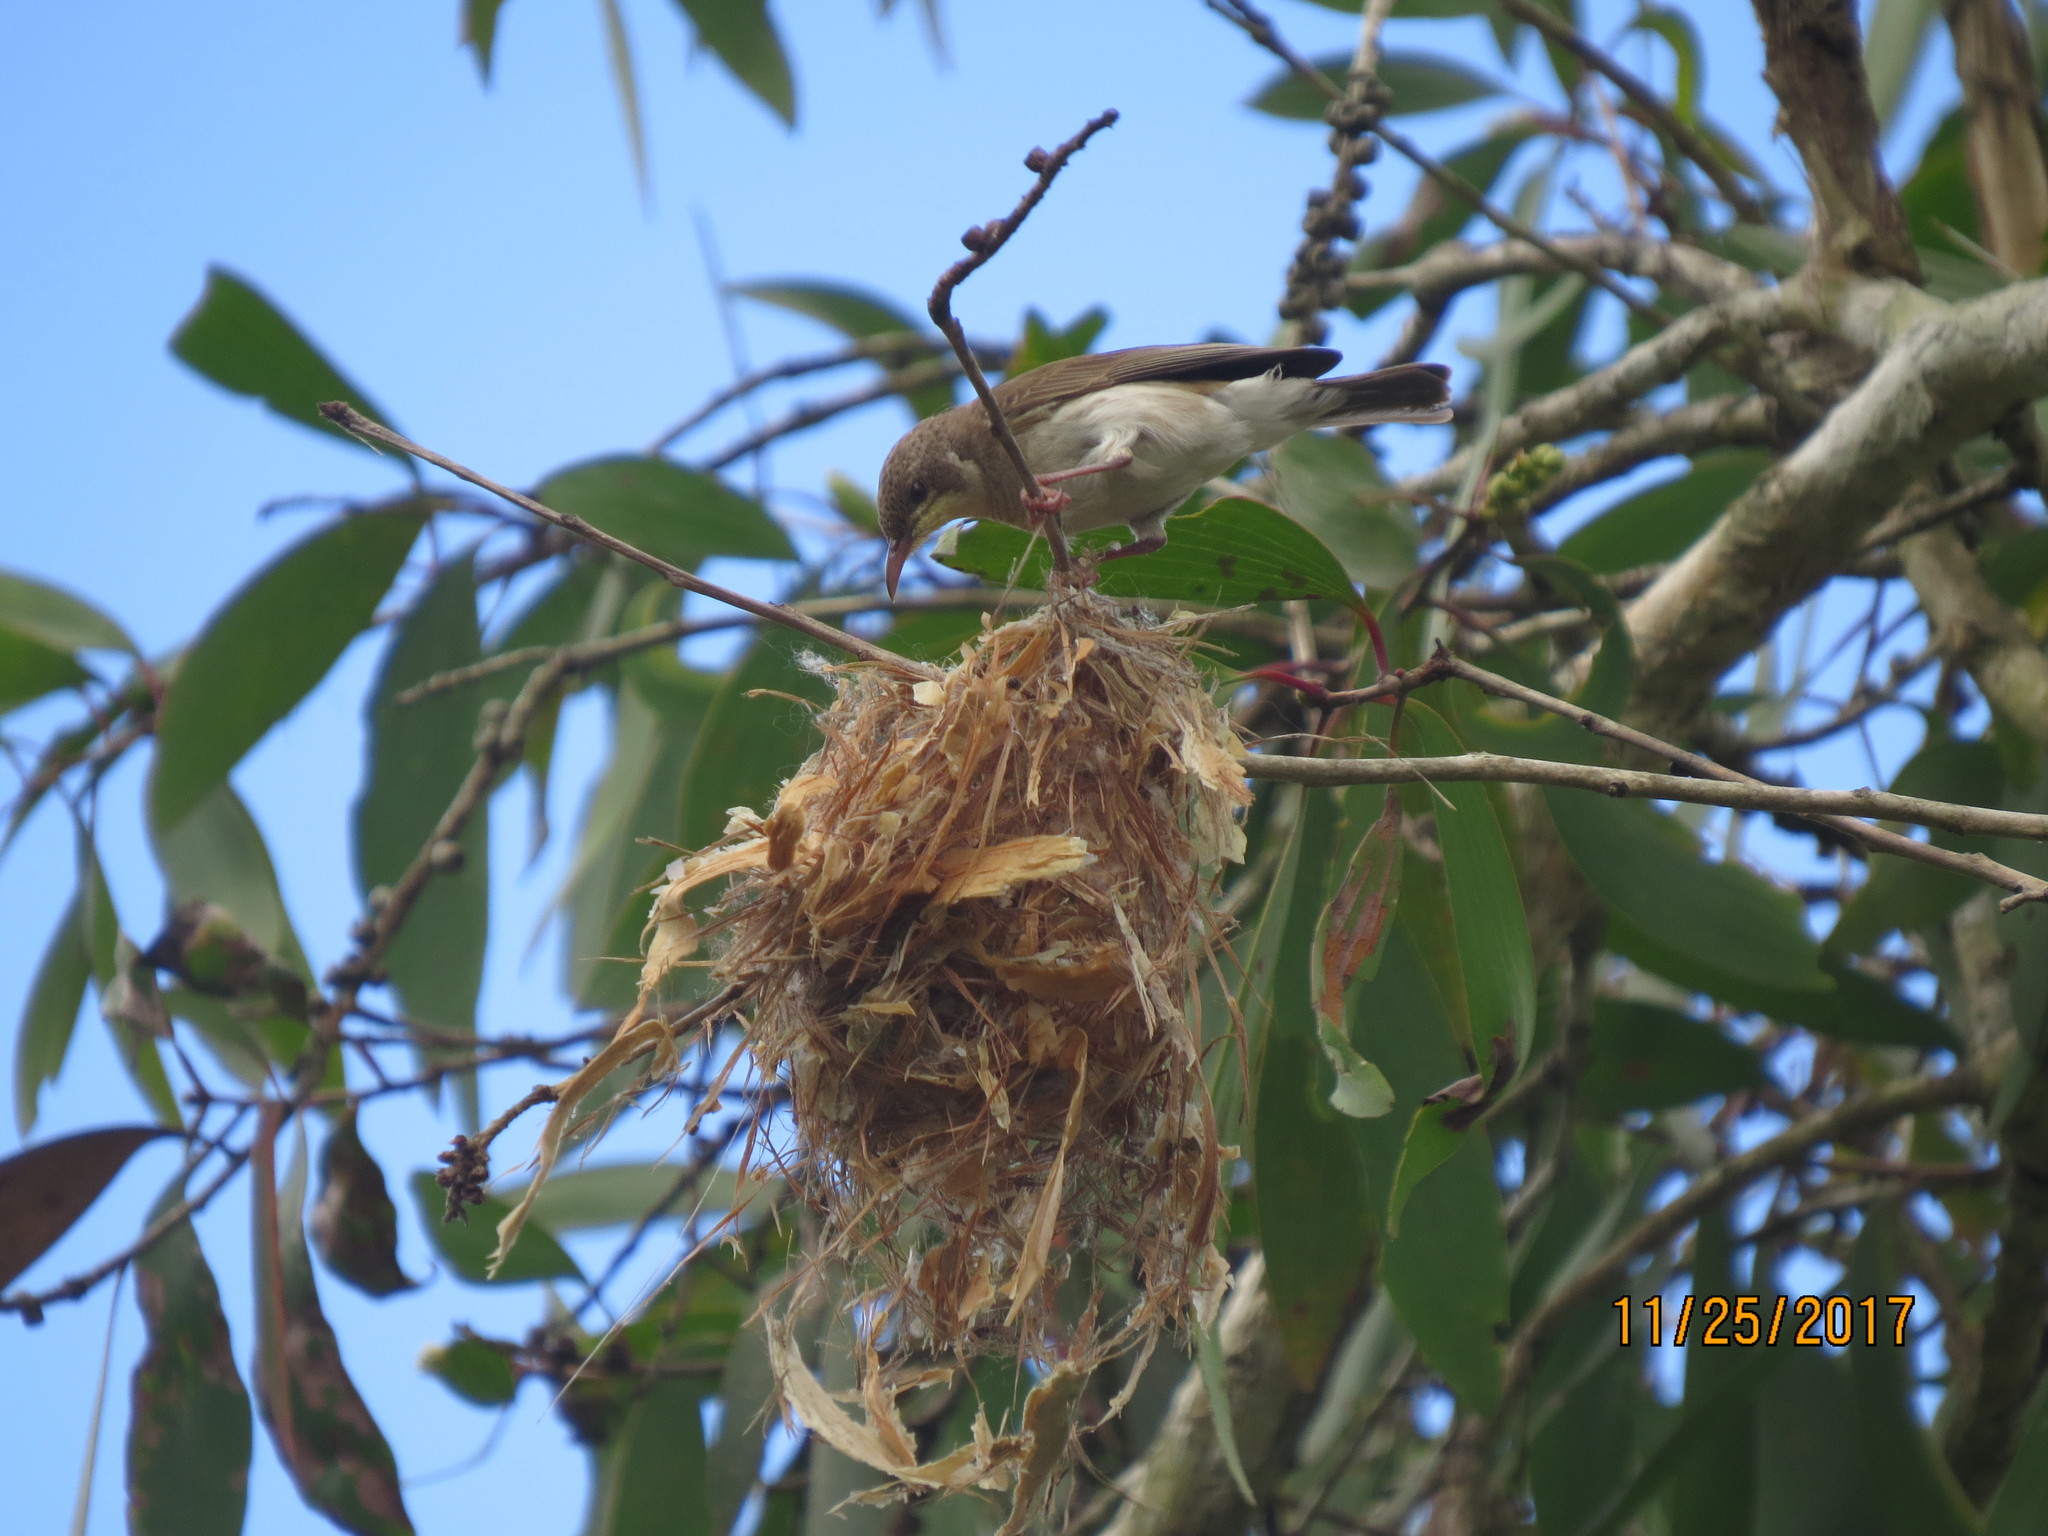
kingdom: Animalia
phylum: Chordata
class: Aves
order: Passeriformes
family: Meliphagidae
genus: Ramsayornis
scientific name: Ramsayornis modestus
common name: Brown-backed honeyeater
